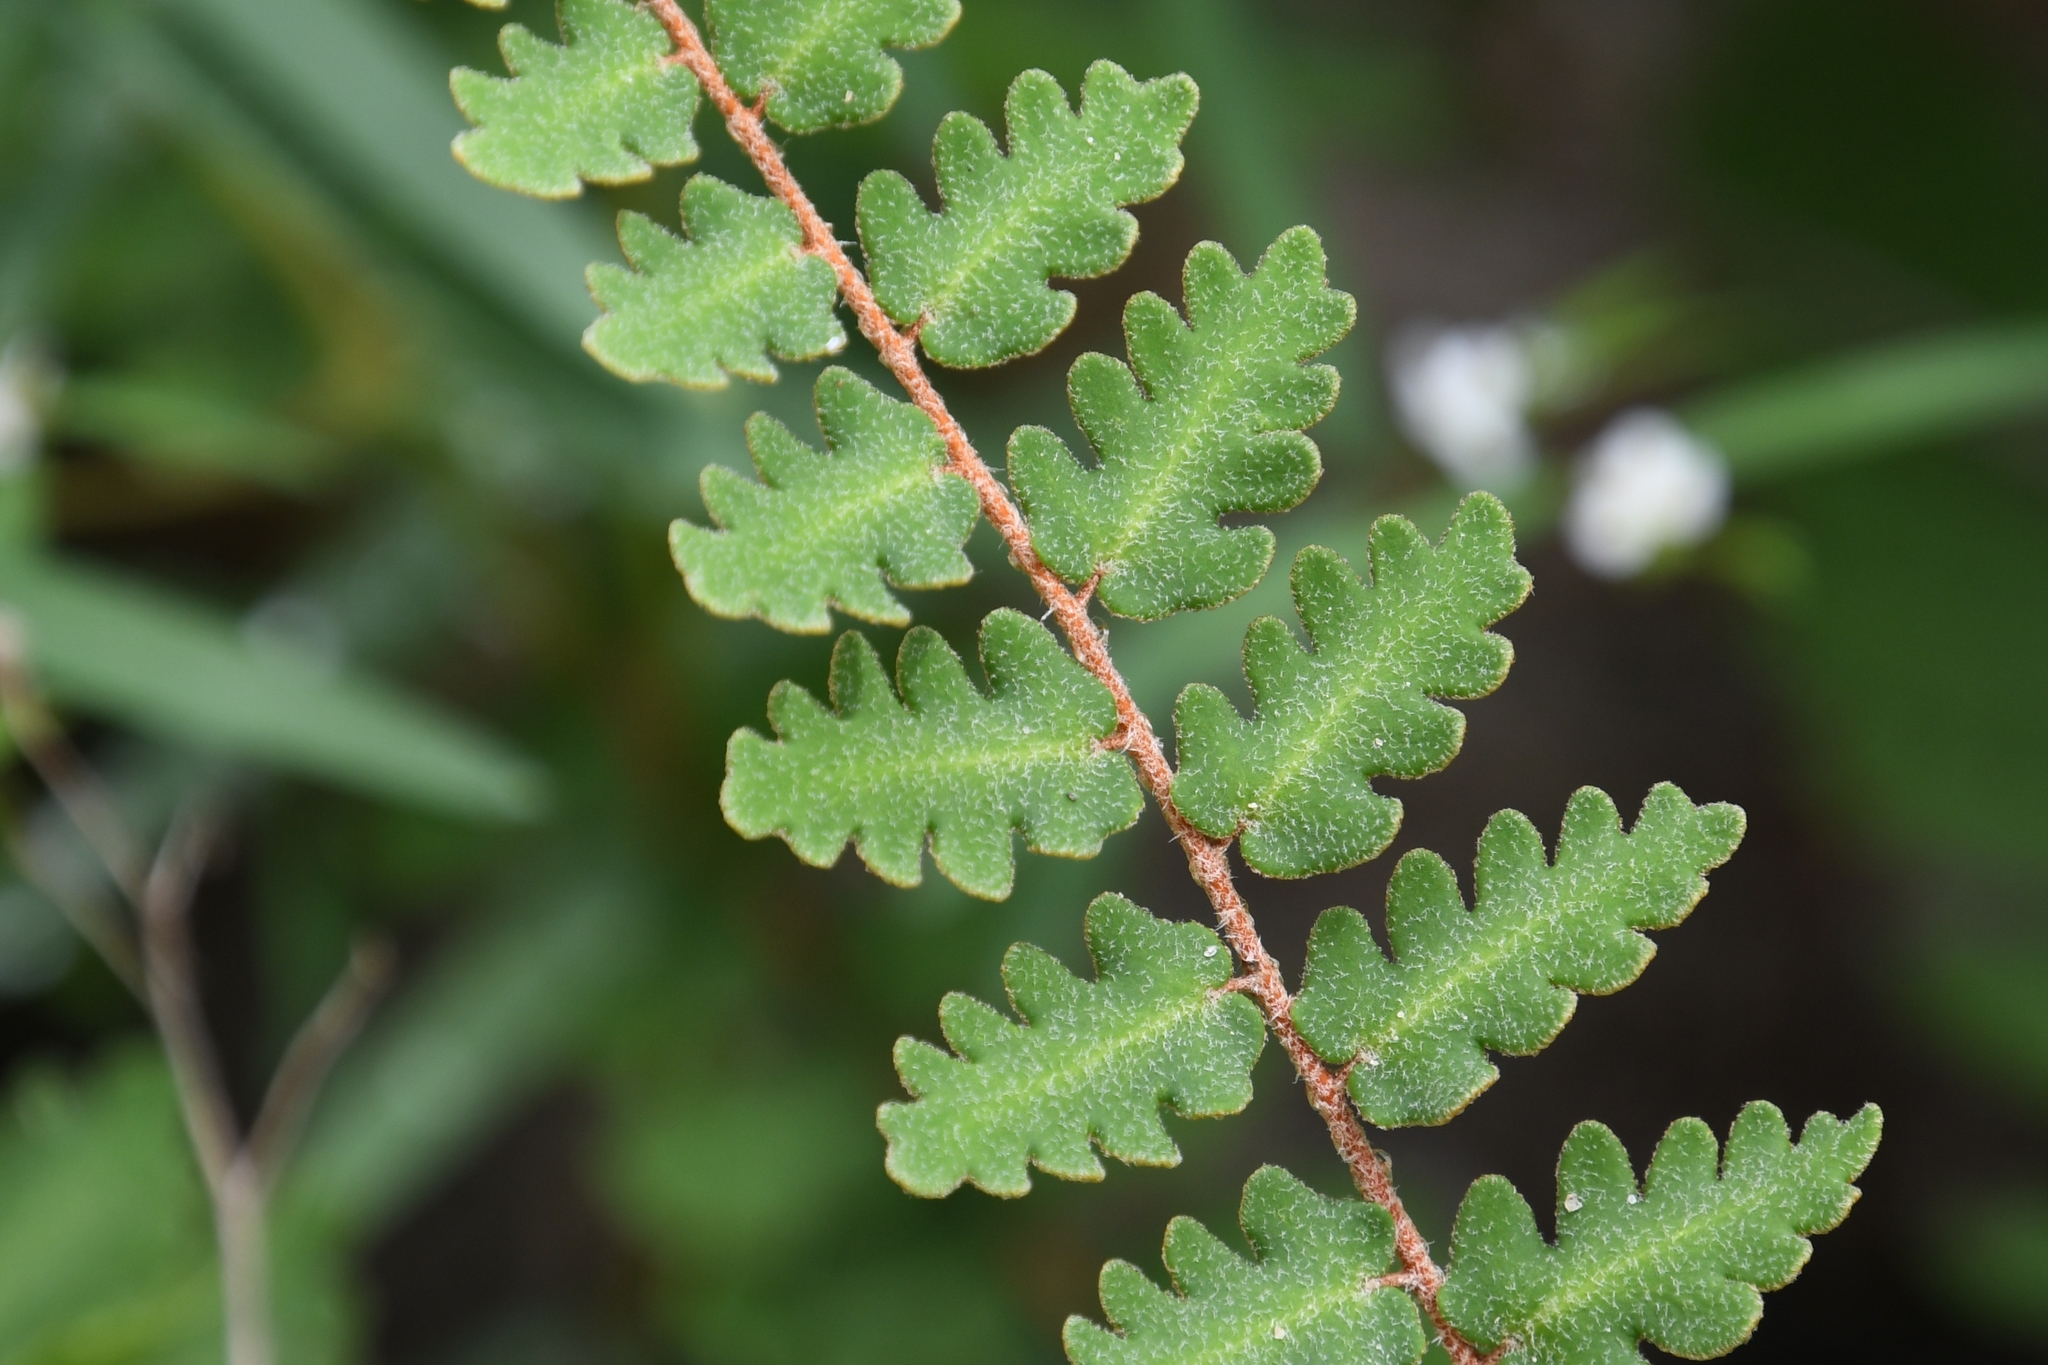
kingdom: Plantae
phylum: Tracheophyta
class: Polypodiopsida
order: Polypodiales
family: Pteridaceae
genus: Astrolepis
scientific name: Astrolepis sinuata
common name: Wavy scaly cloakfern
